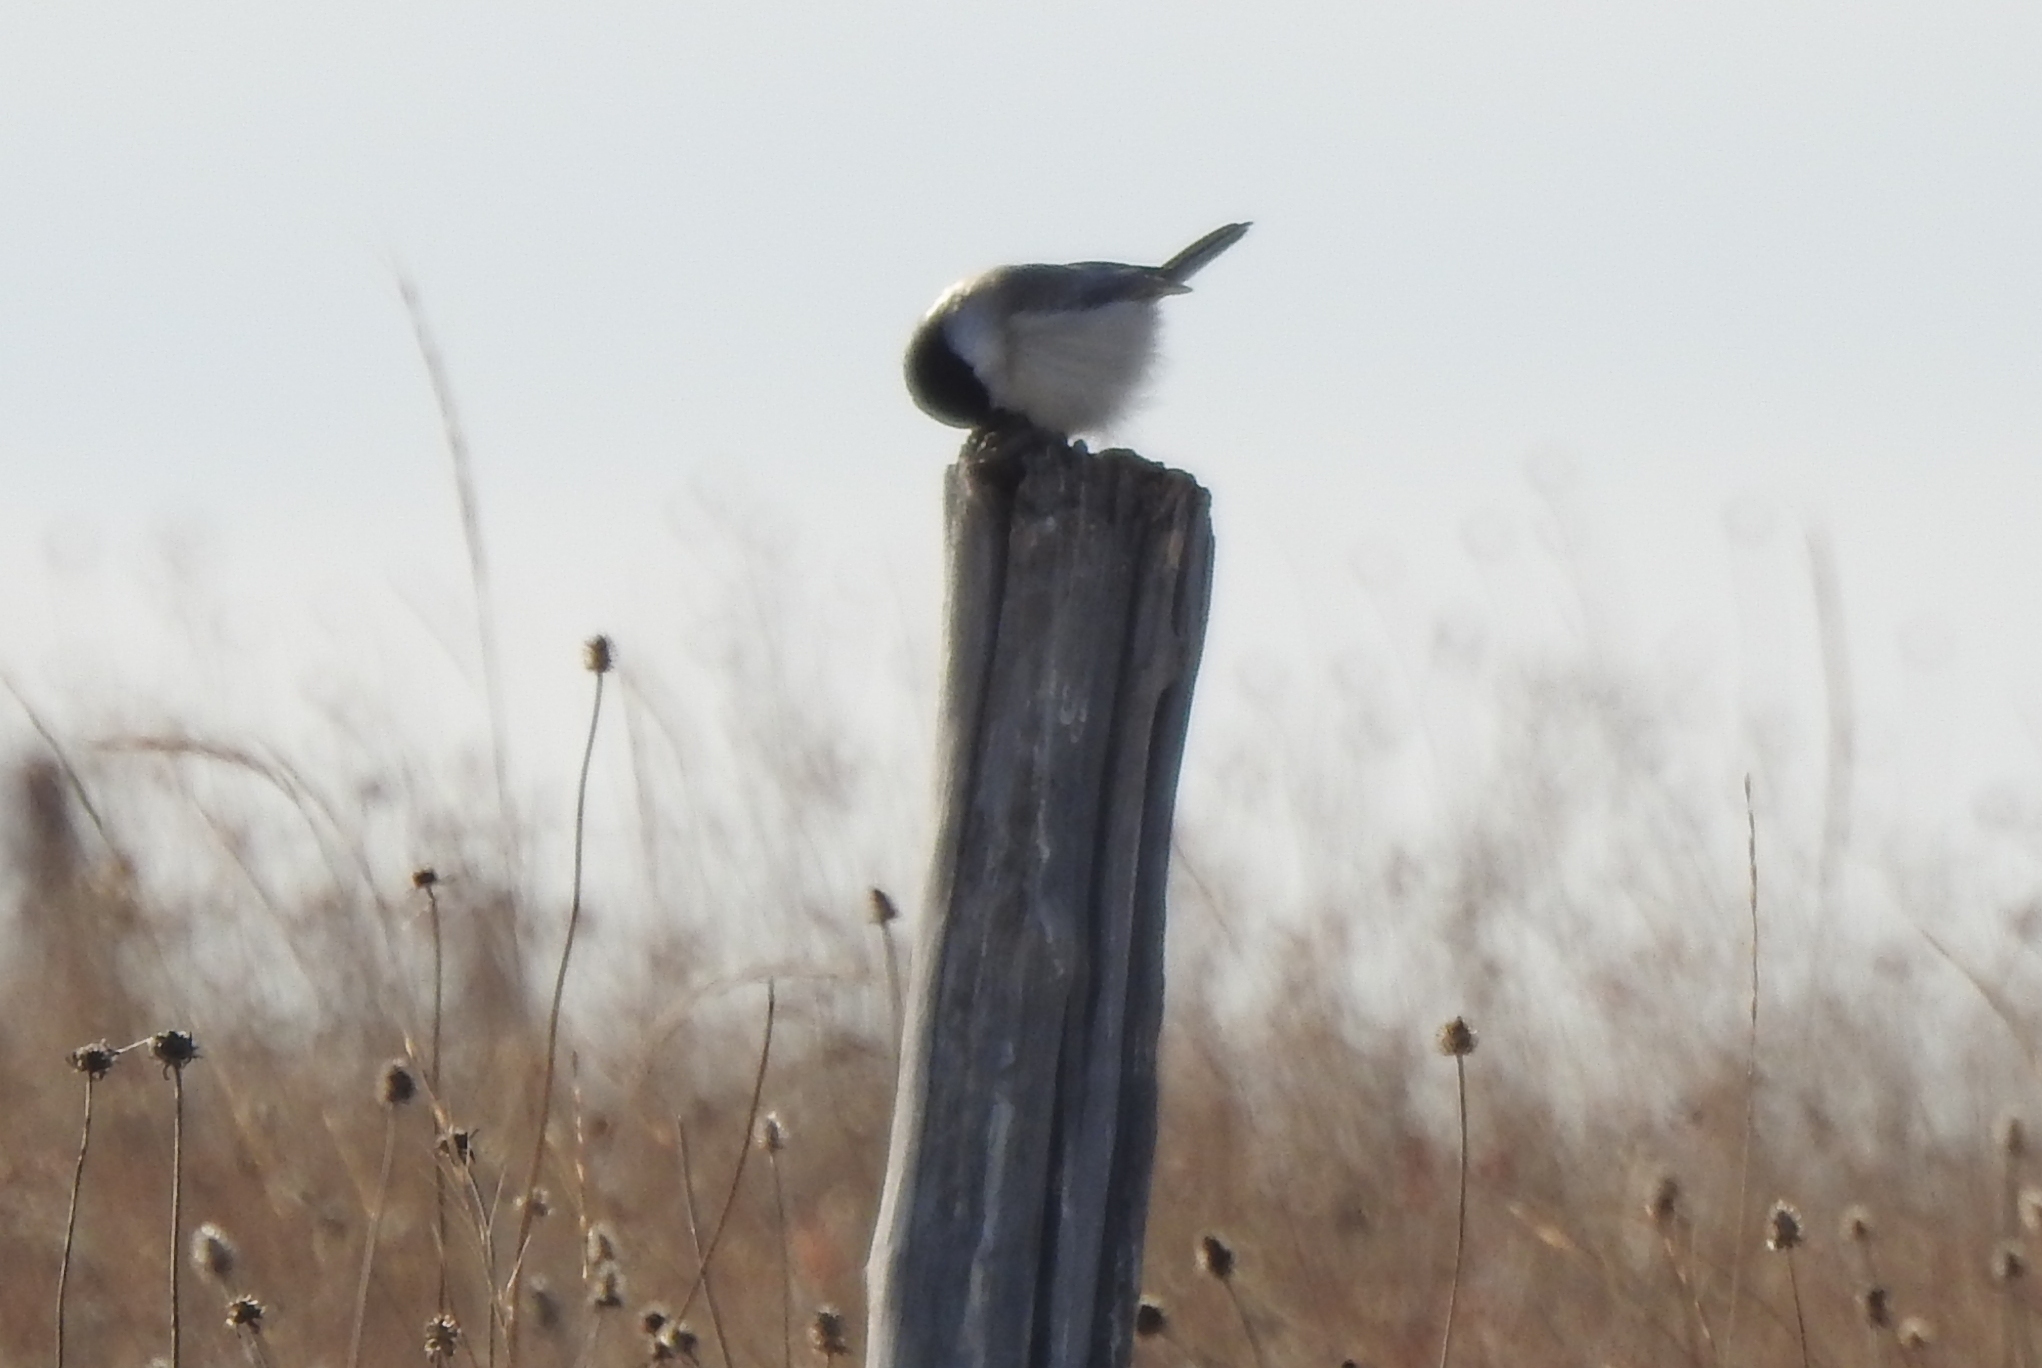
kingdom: Animalia
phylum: Chordata
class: Aves
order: Passeriformes
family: Paridae
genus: Poecile
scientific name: Poecile montanus
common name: Willow tit
